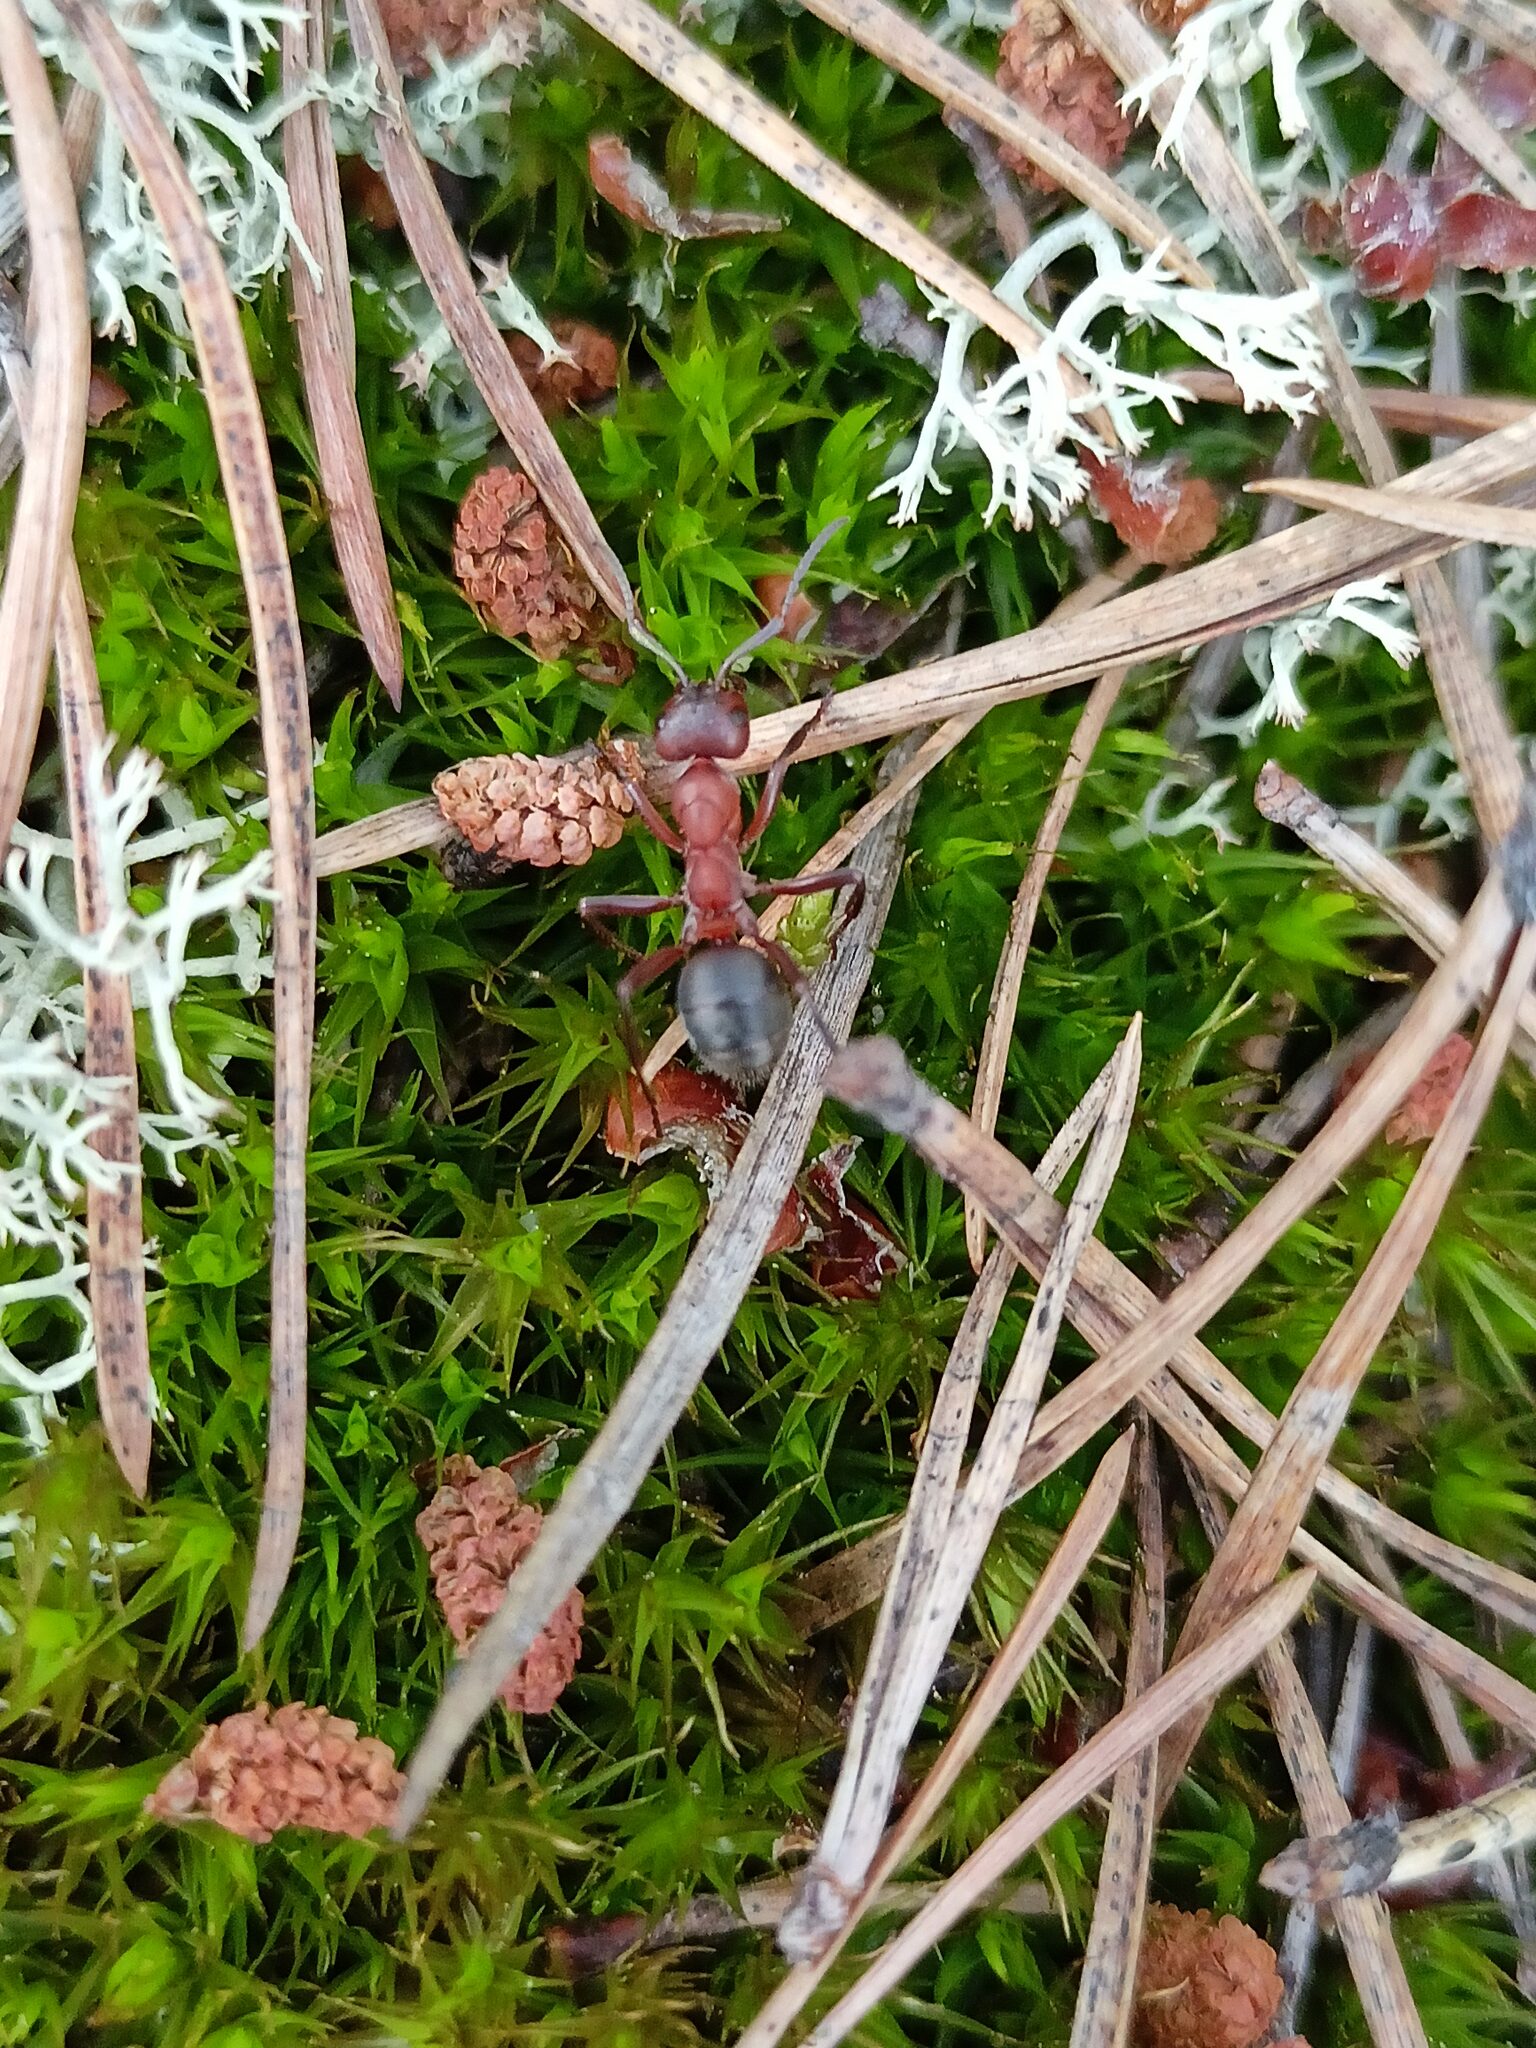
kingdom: Animalia
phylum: Arthropoda
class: Insecta
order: Hymenoptera
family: Formicidae
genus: Formica
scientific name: Formica truncorum
